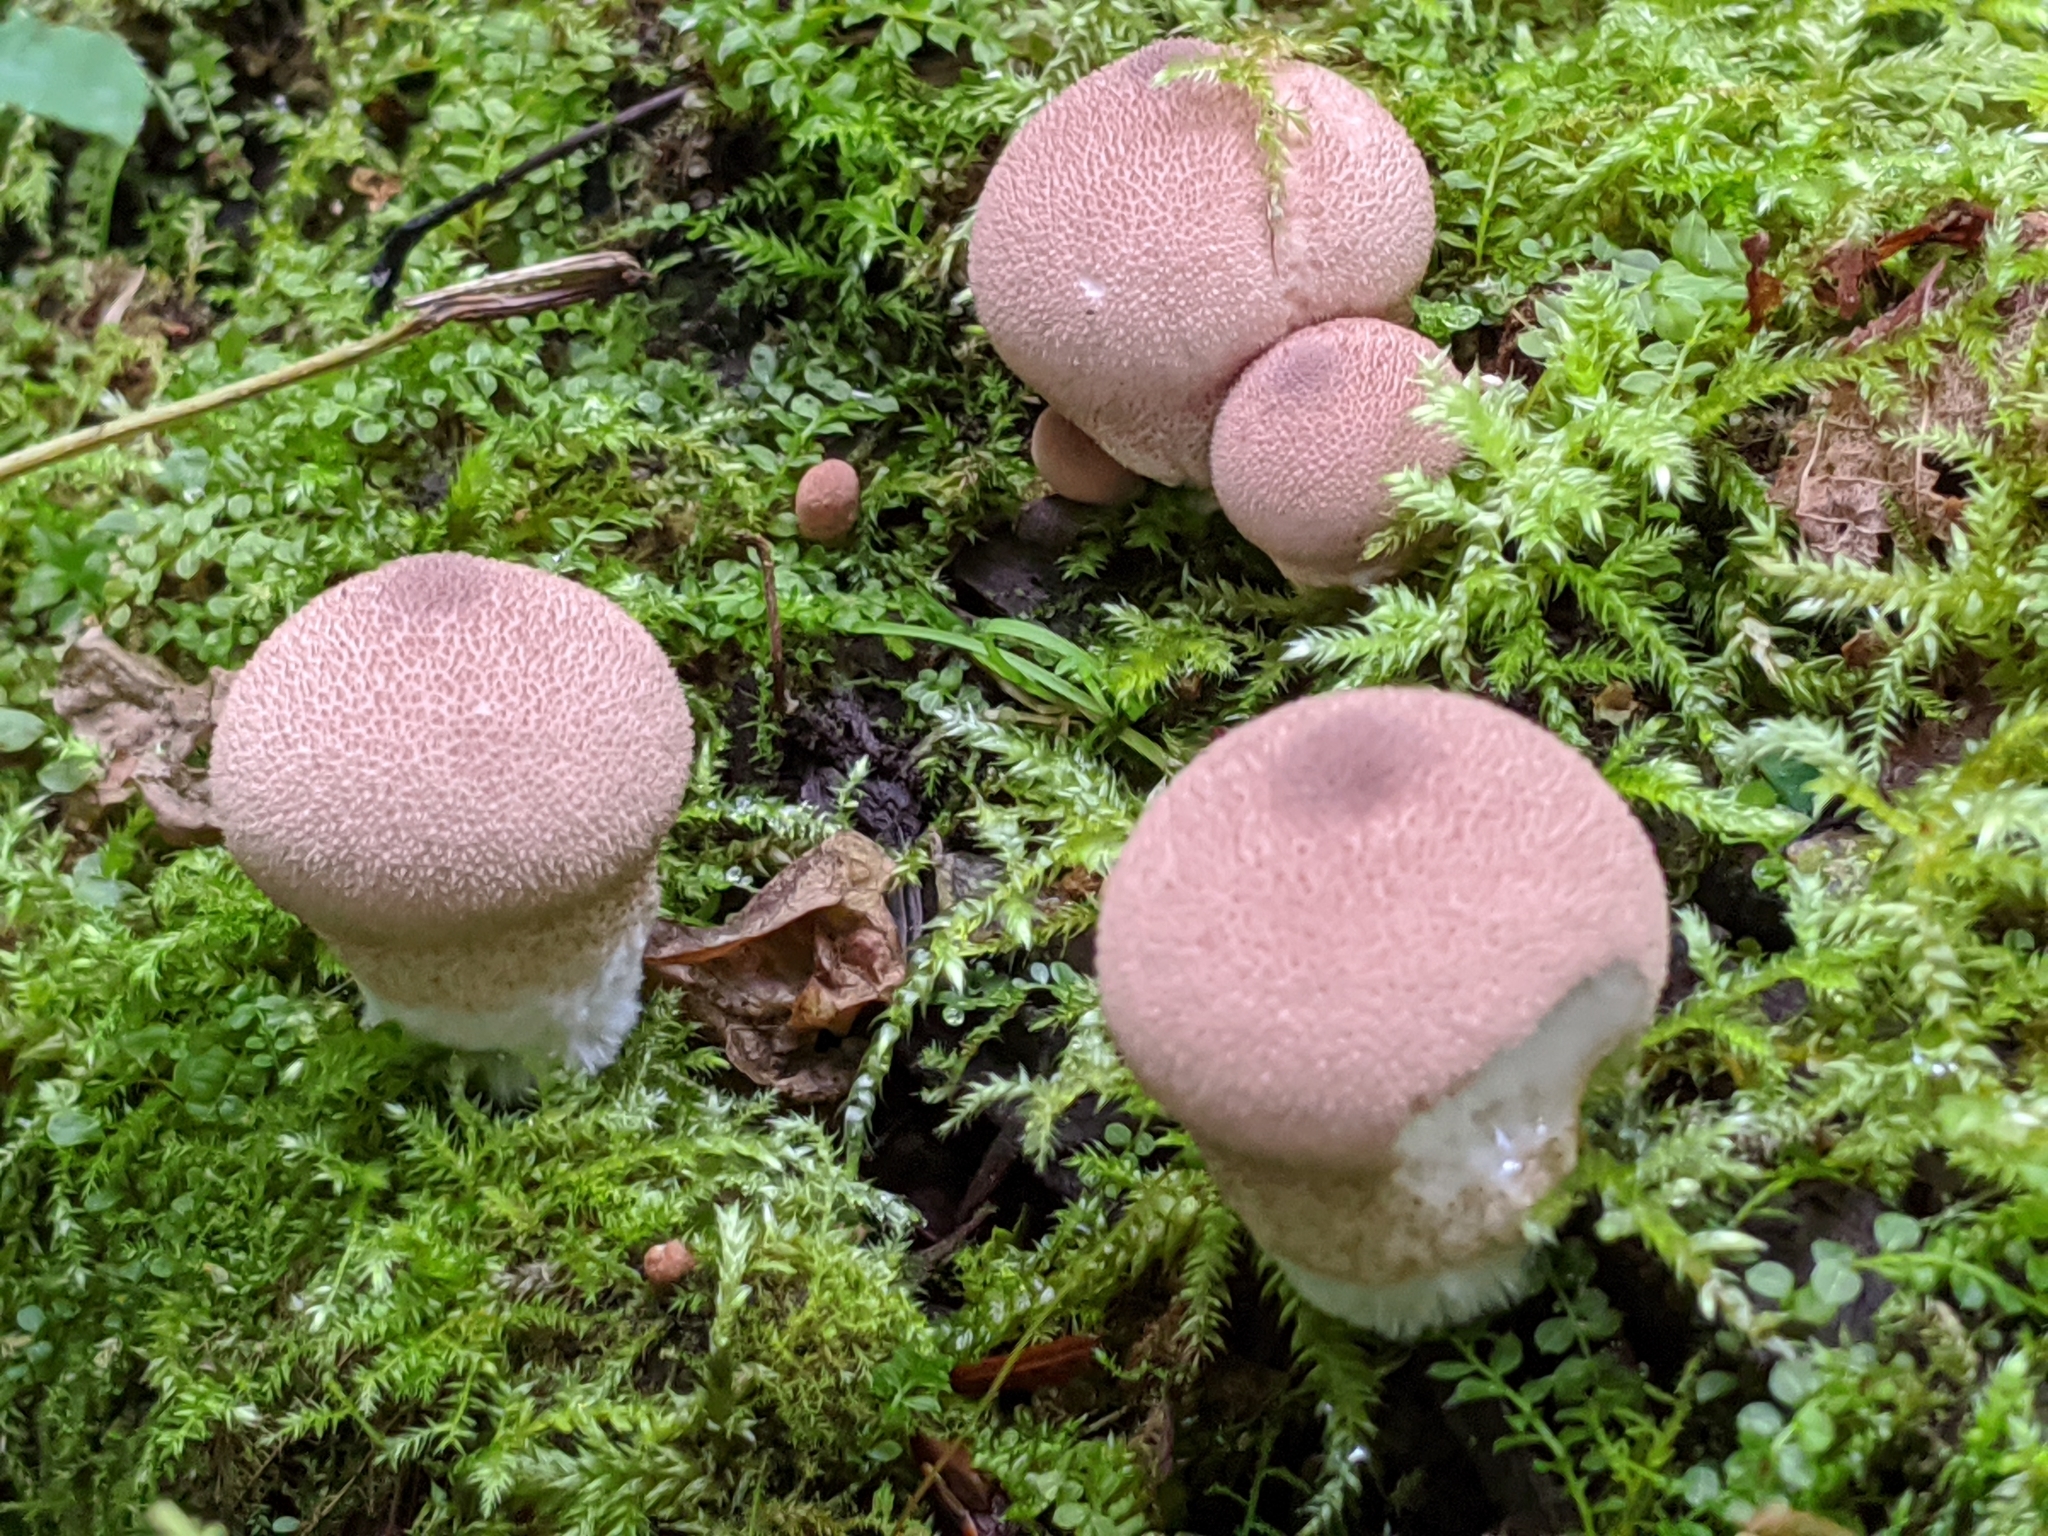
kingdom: Fungi
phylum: Basidiomycota
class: Agaricomycetes
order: Agaricales
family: Lycoperdaceae
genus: Lycoperdon
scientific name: Lycoperdon subincarnatum
